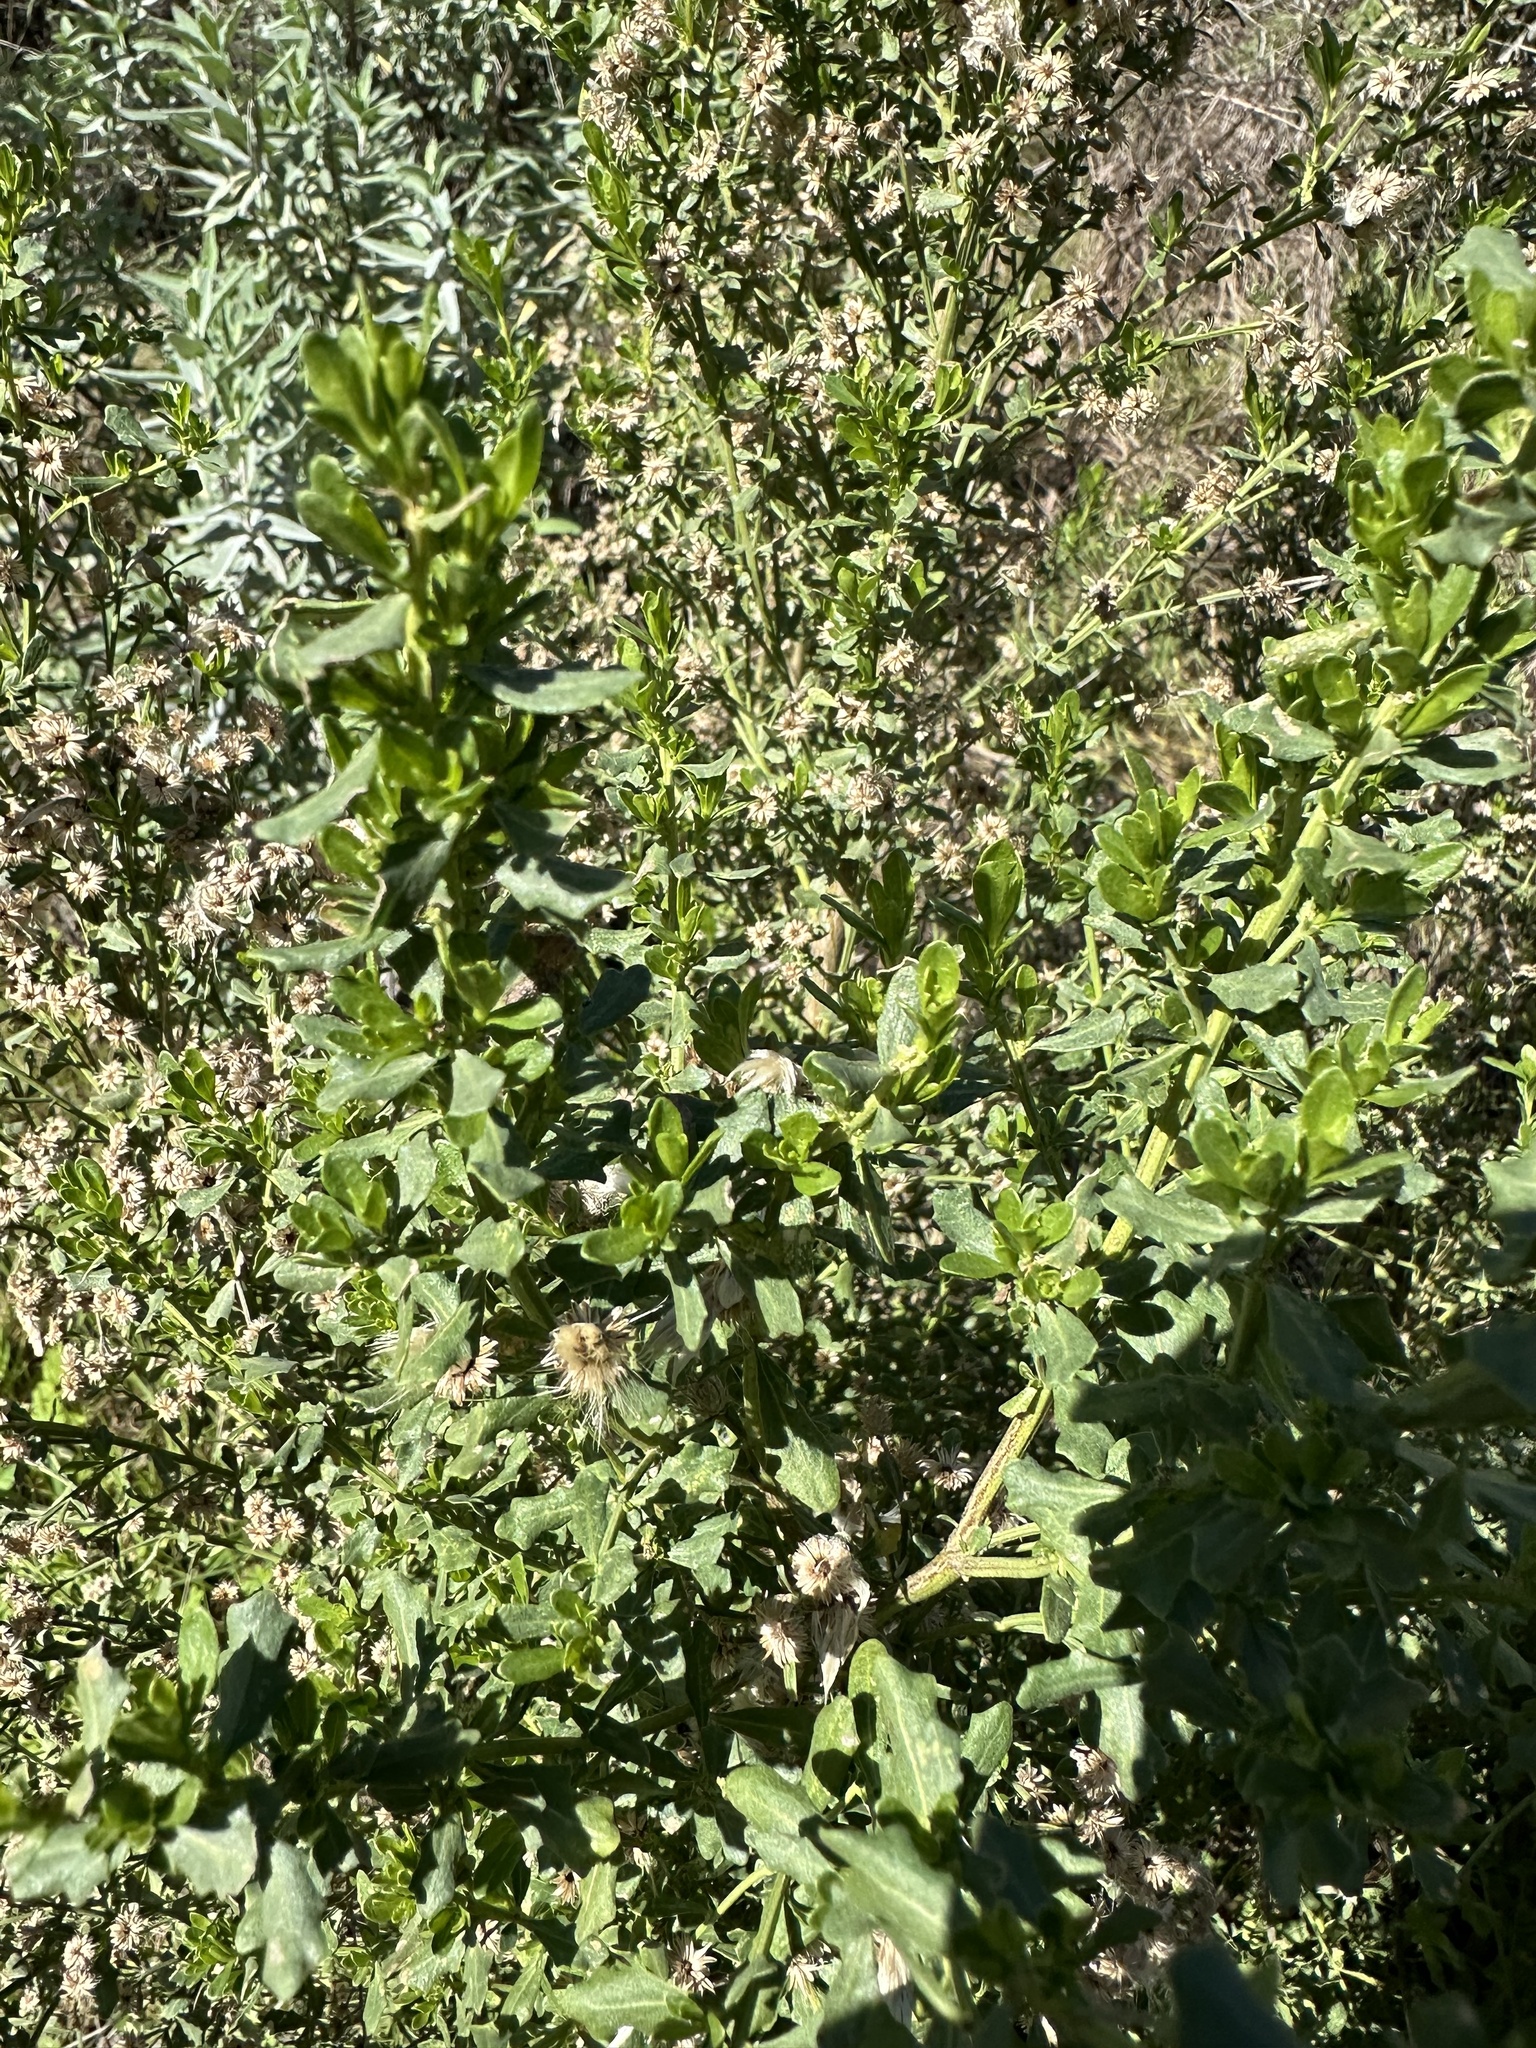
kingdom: Plantae
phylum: Tracheophyta
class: Magnoliopsida
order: Asterales
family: Asteraceae
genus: Baccharis
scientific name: Baccharis pilularis
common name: Coyotebrush
